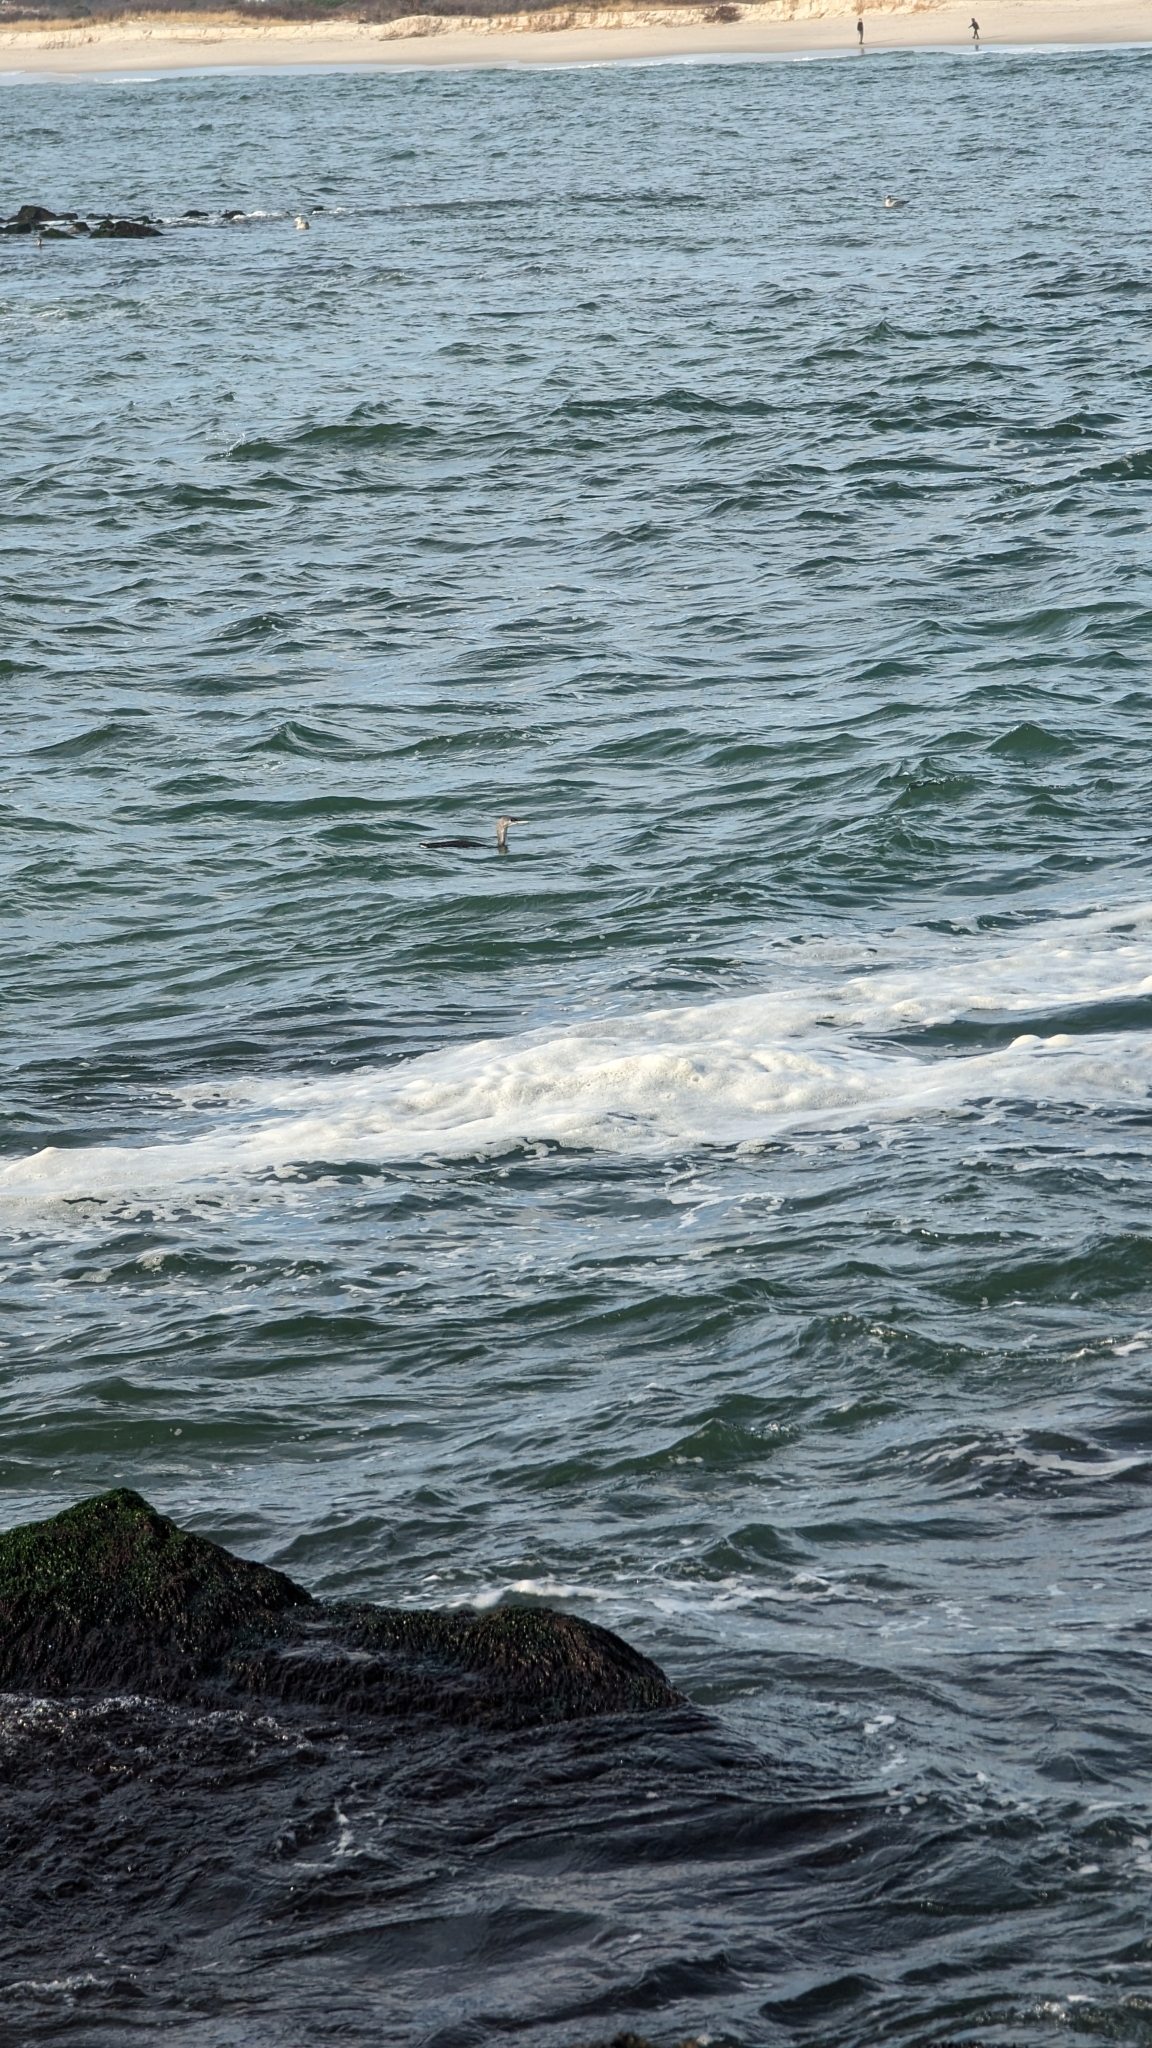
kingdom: Animalia
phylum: Chordata
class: Aves
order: Gaviiformes
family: Gaviidae
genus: Gavia
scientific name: Gavia stellata
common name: Red-throated loon
